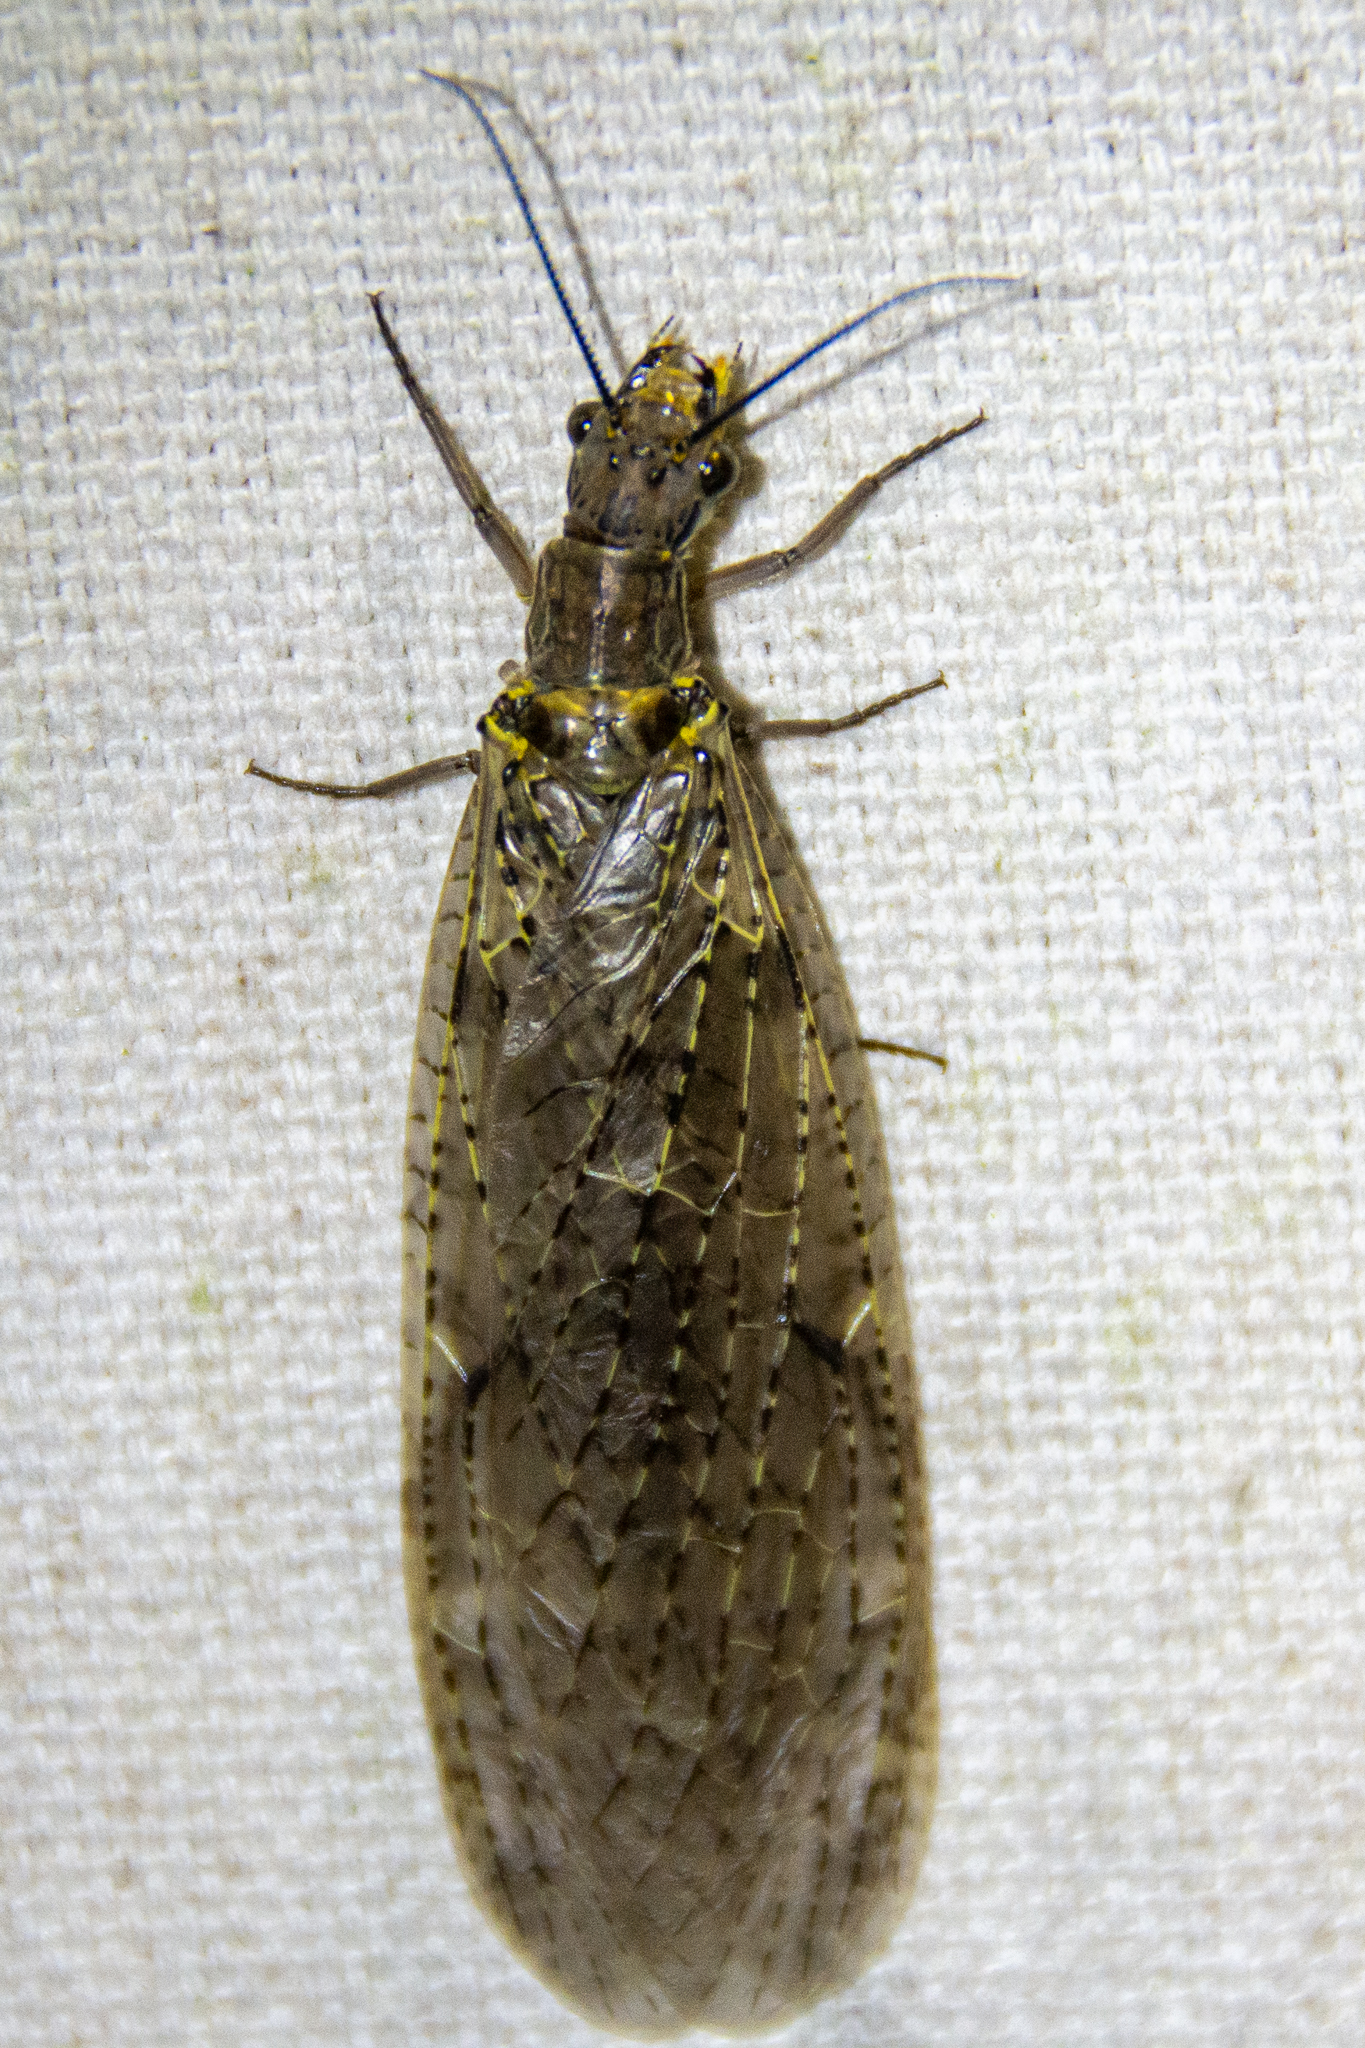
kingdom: Animalia
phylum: Arthropoda
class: Insecta
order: Megaloptera
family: Corydalidae
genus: Chauliodes
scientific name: Chauliodes rastricornis
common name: Spring fishfly
